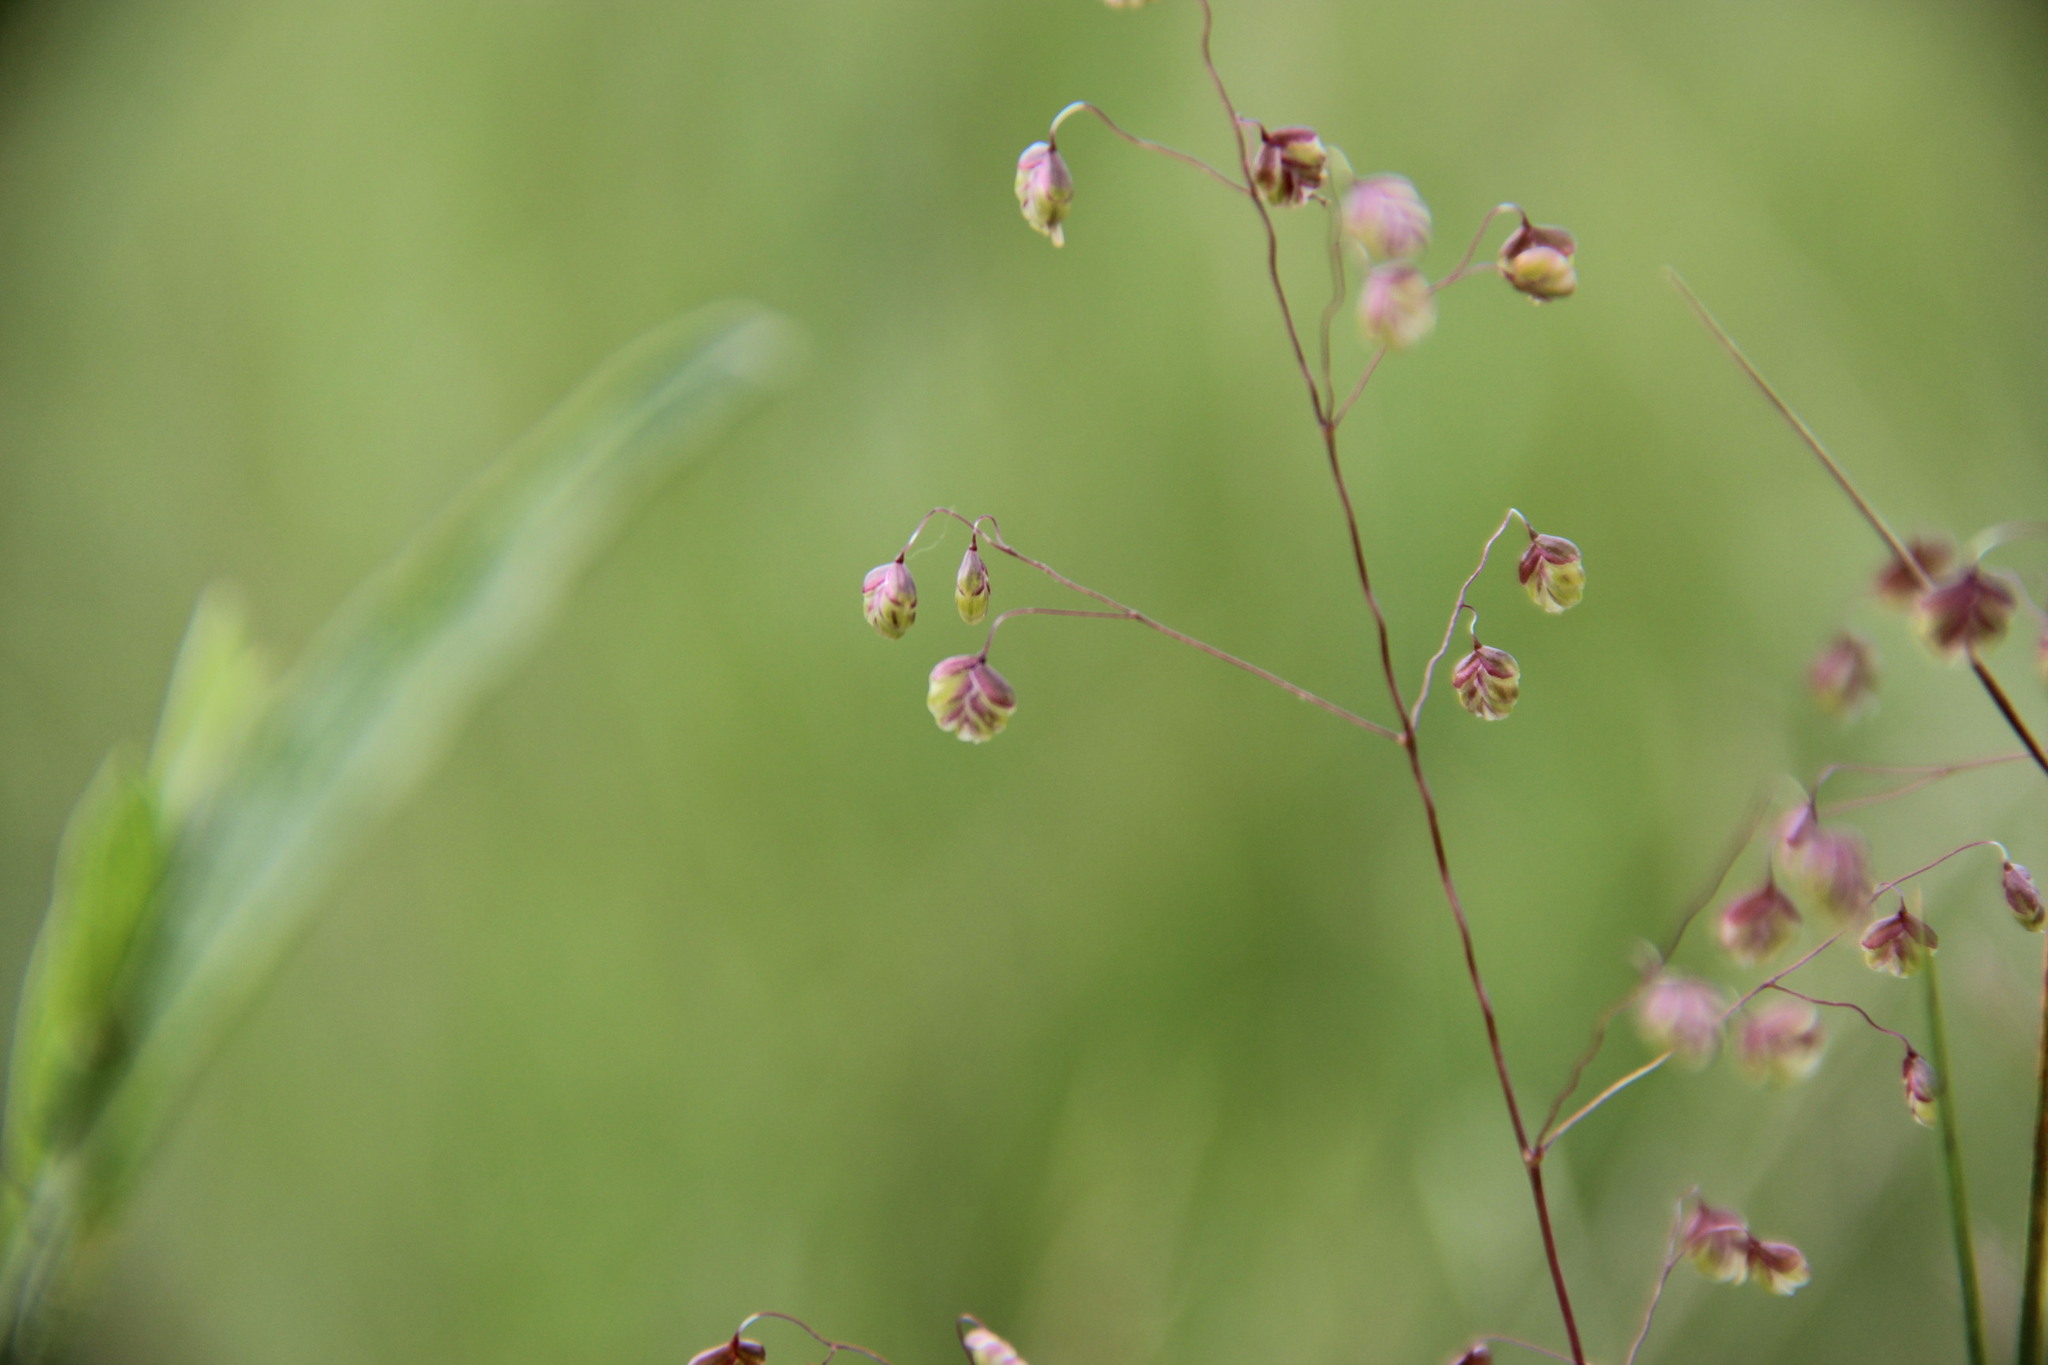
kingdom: Plantae
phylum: Tracheophyta
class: Liliopsida
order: Poales
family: Poaceae
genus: Briza
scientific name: Briza media
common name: Quaking grass
